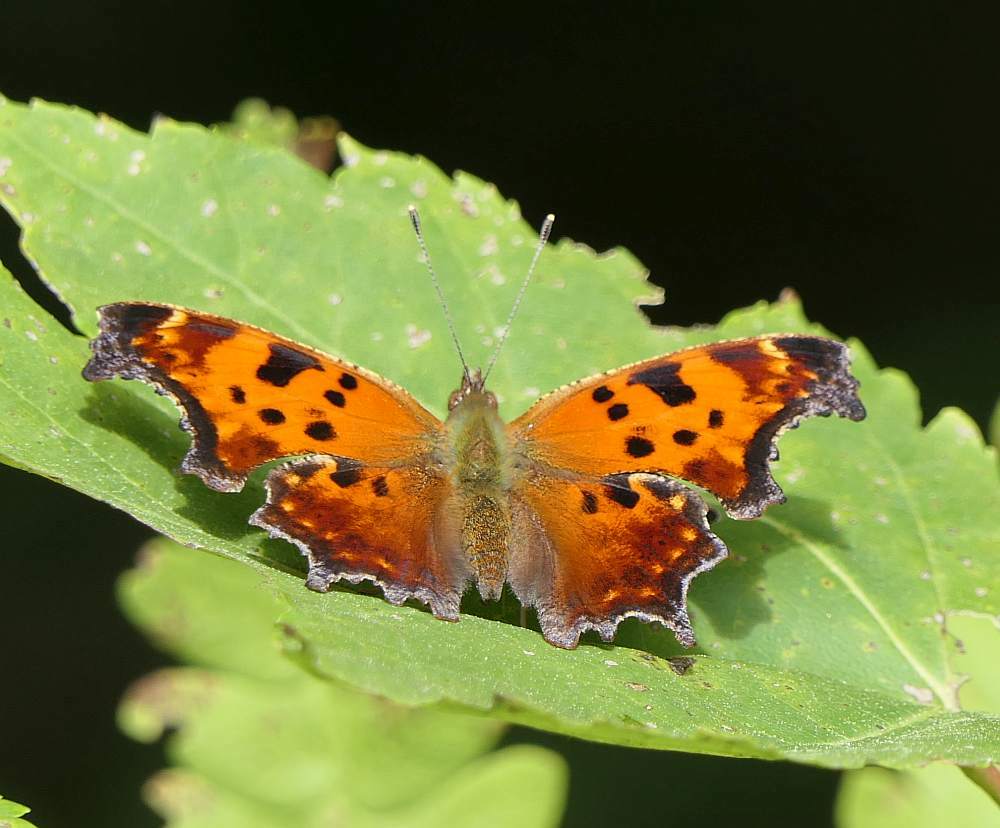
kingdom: Animalia
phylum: Arthropoda
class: Insecta
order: Lepidoptera
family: Nymphalidae
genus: Polygonia
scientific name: Polygonia comma
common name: Eastern comma
